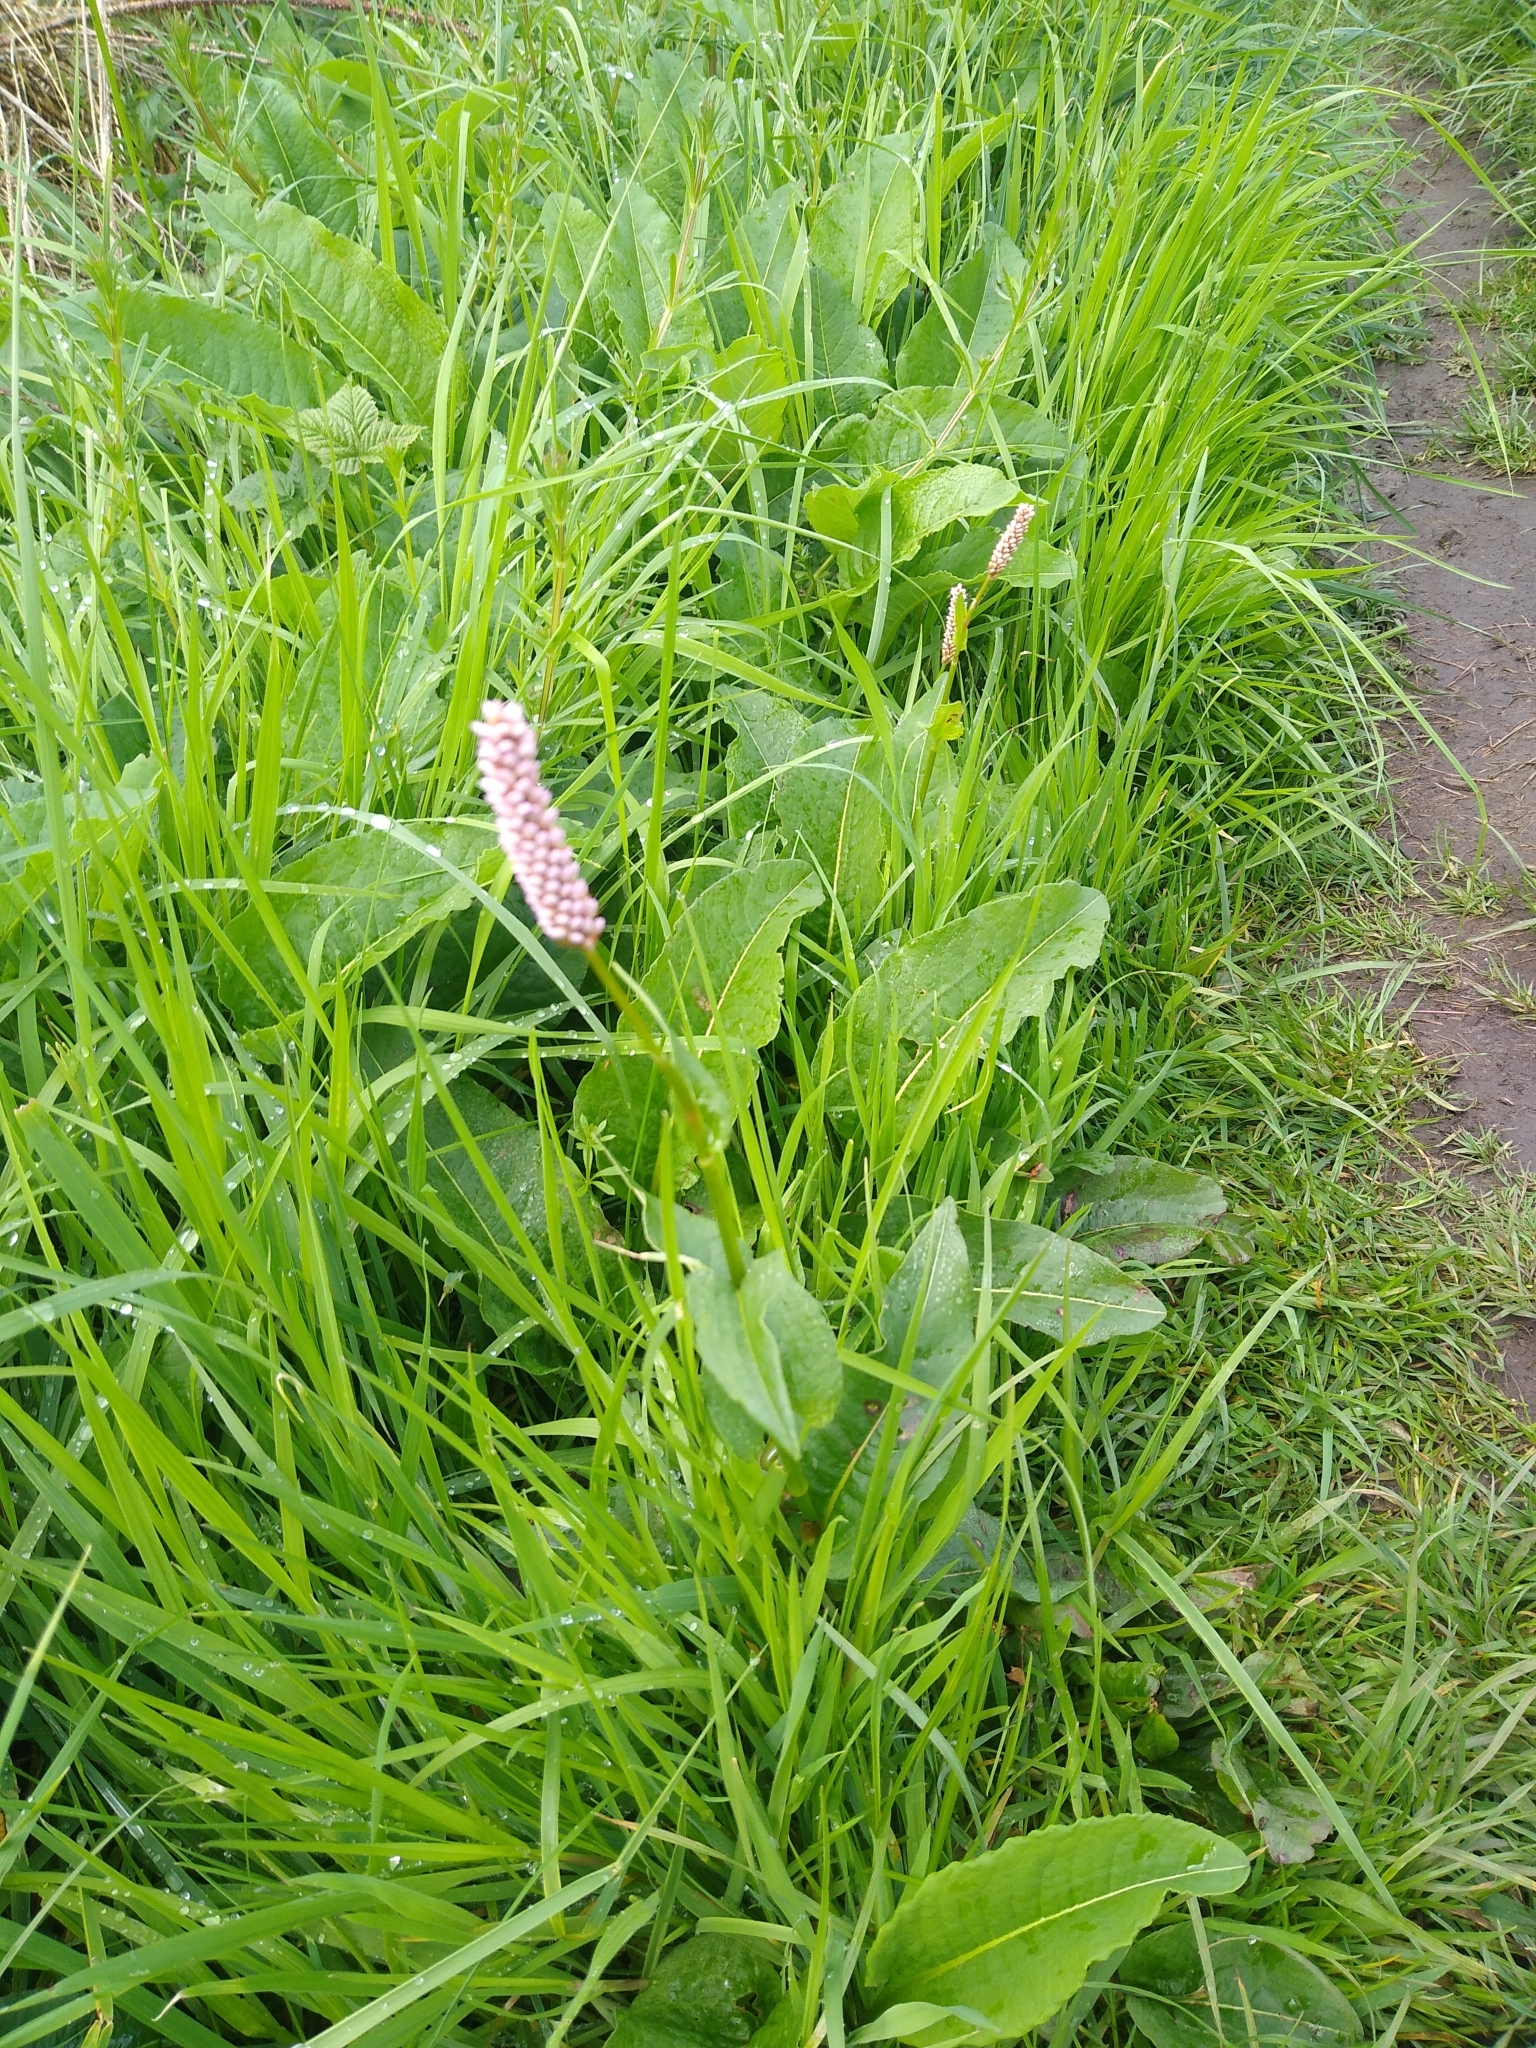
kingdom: Plantae
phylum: Tracheophyta
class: Magnoliopsida
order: Caryophyllales
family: Polygonaceae
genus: Bistorta
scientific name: Bistorta officinalis
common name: Common bistort
